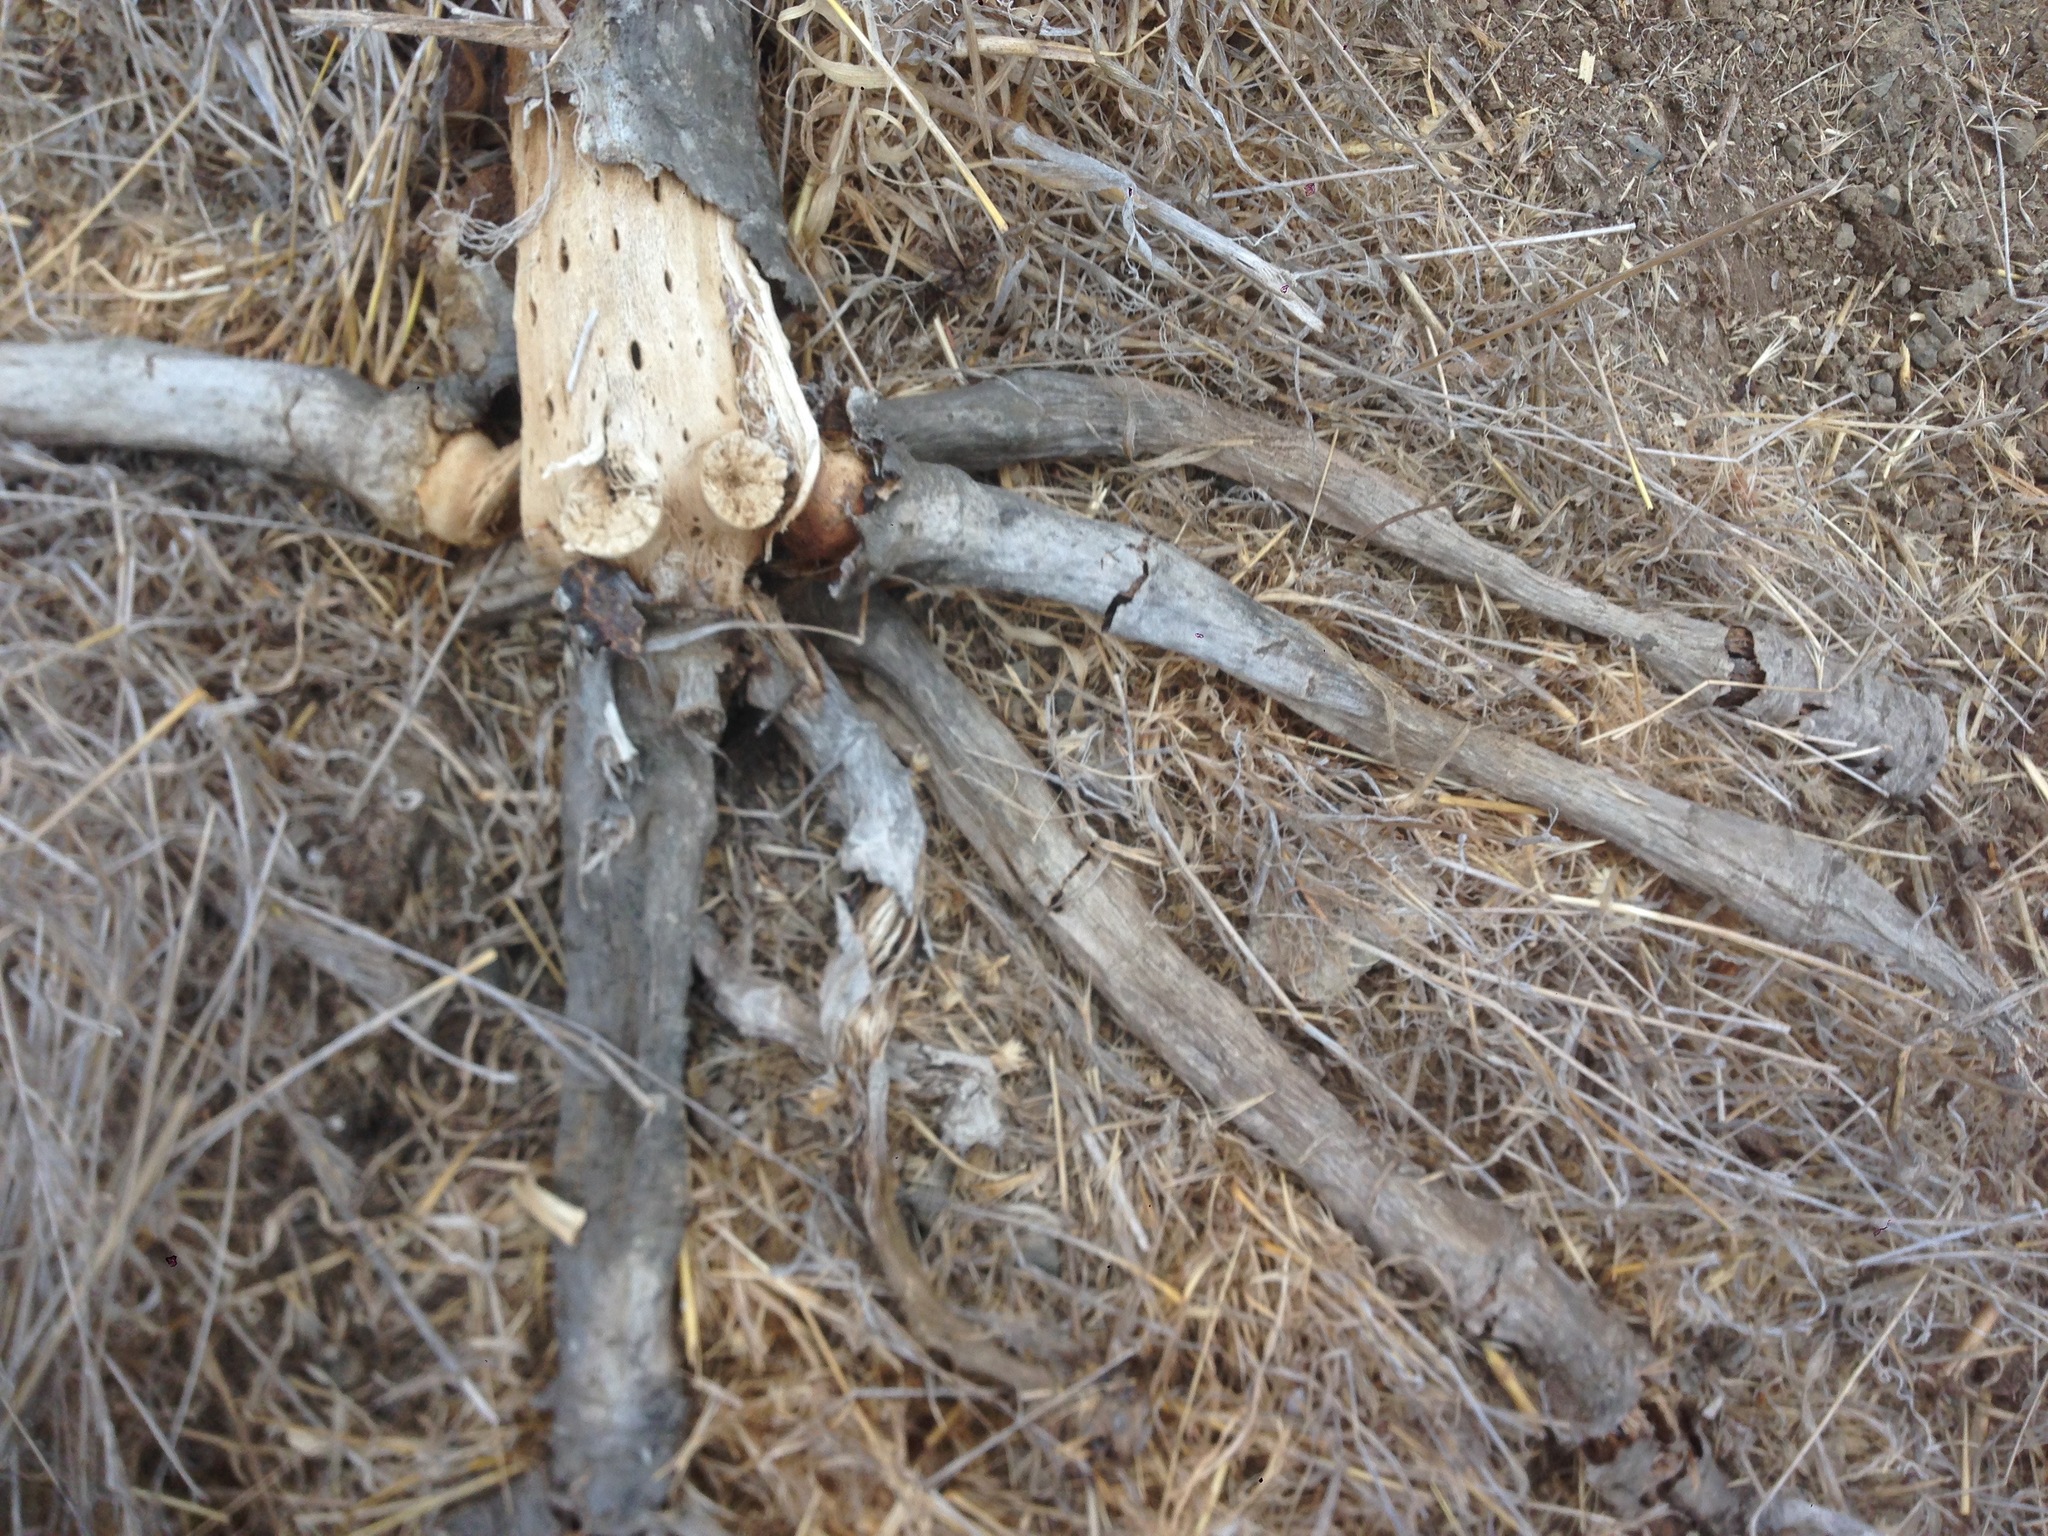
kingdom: Plantae
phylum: Tracheophyta
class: Magnoliopsida
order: Asterales
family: Asteraceae
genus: Coreopsis
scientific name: Coreopsis gigantea
